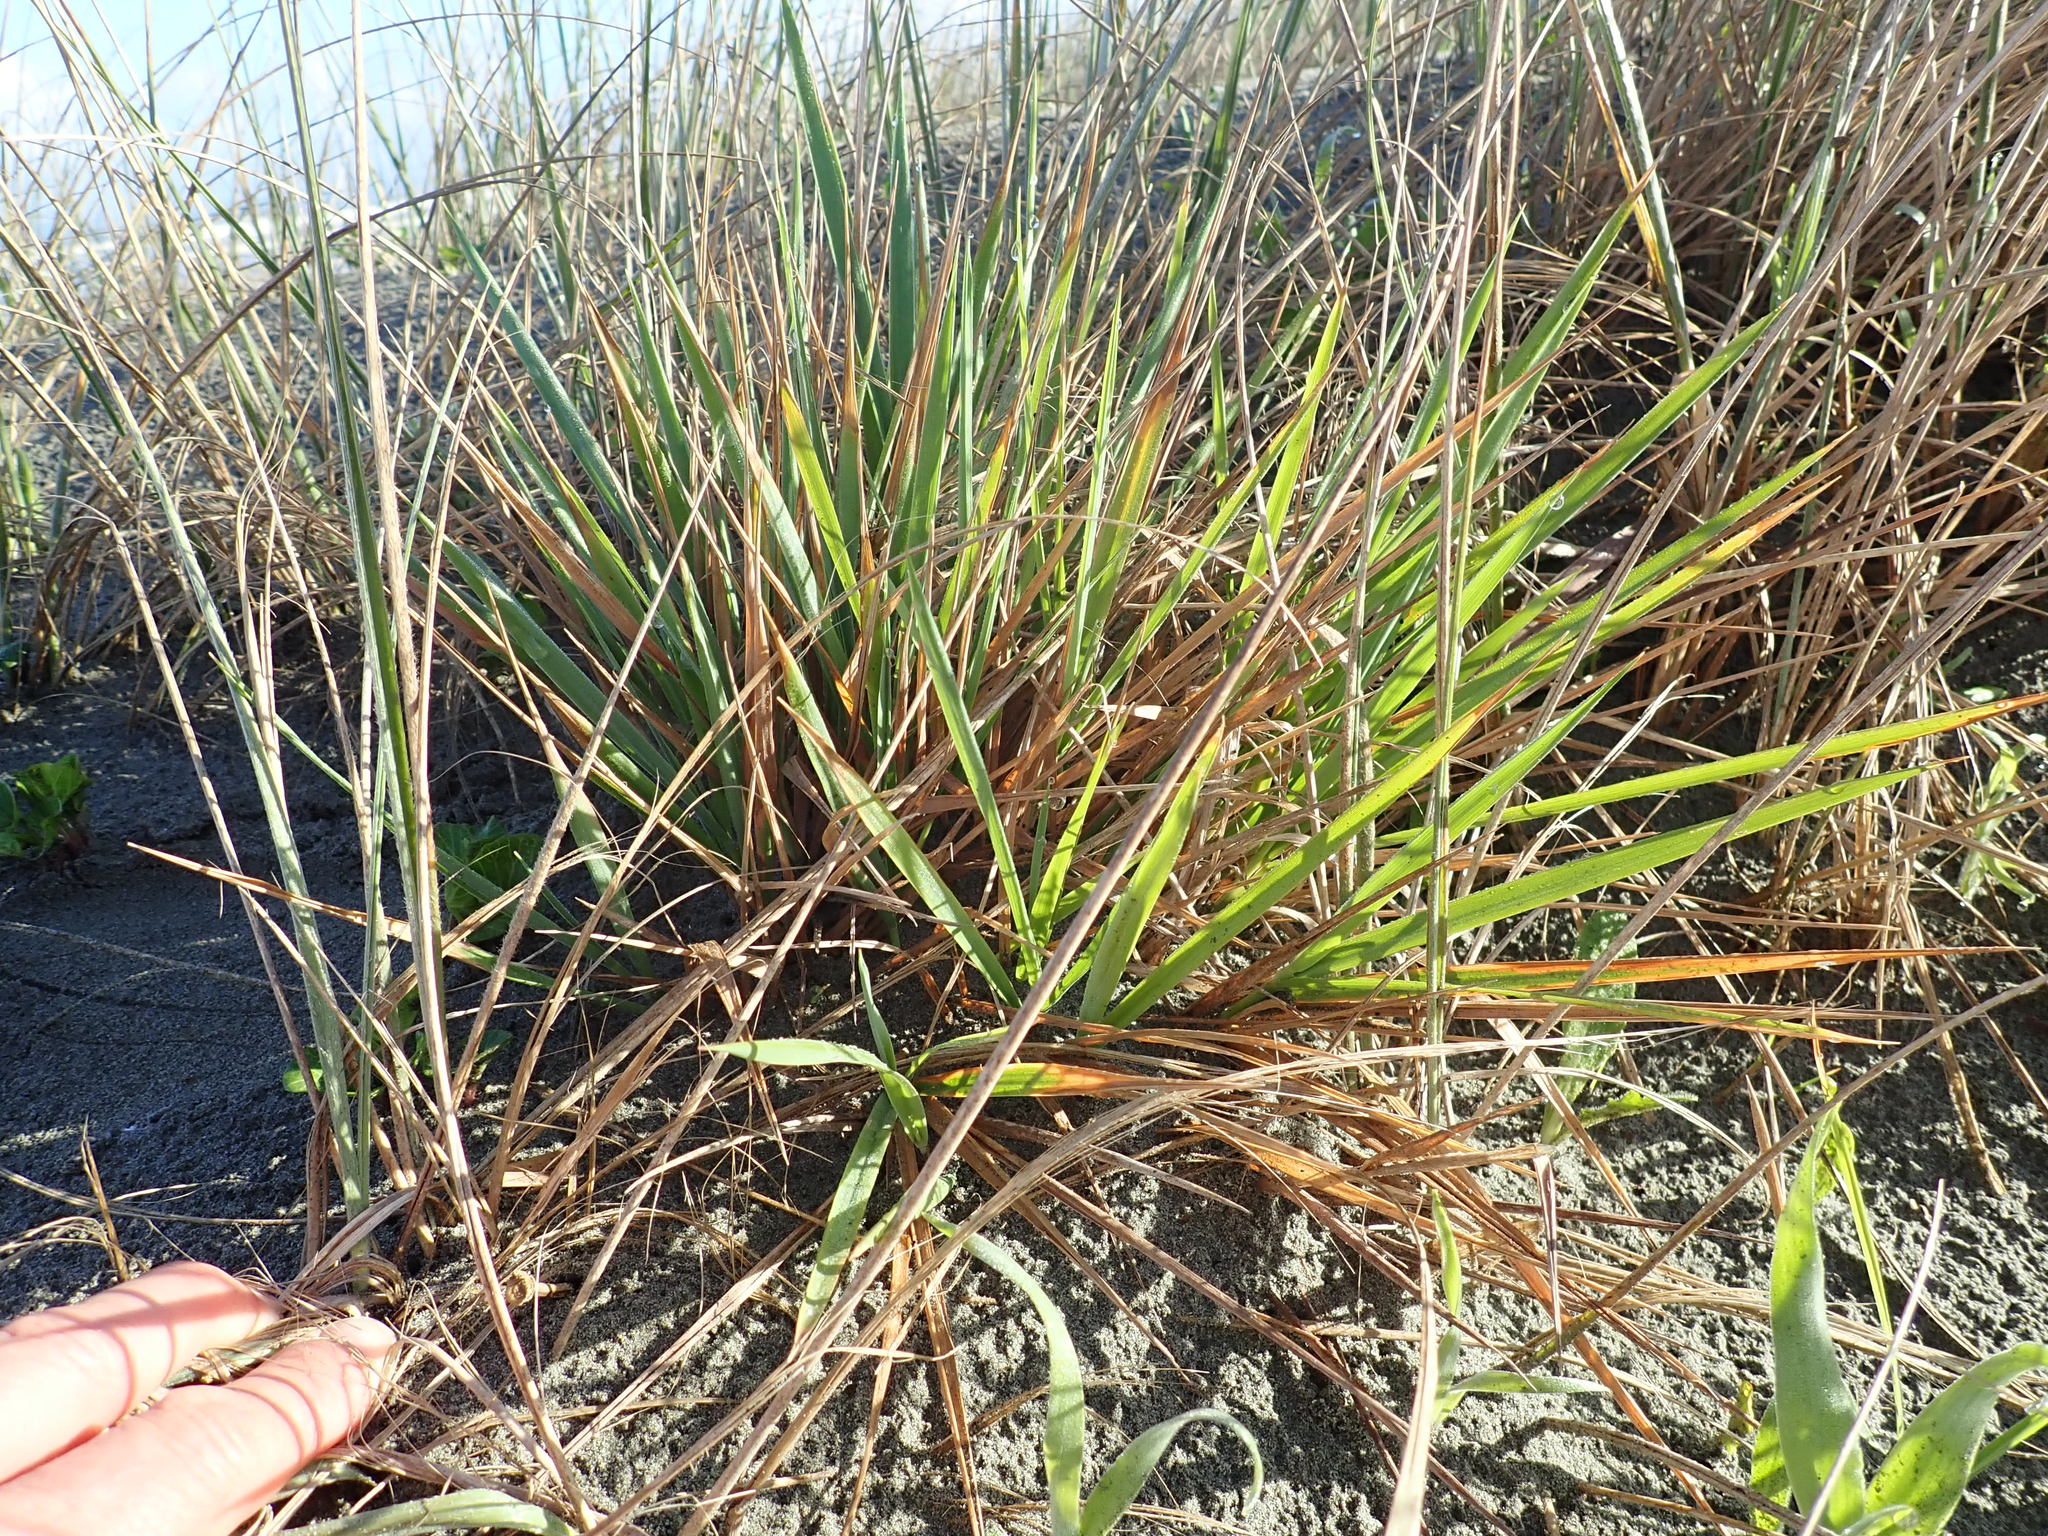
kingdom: Plantae
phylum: Tracheophyta
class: Liliopsida
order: Poales
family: Poaceae
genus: Lachnagrostis
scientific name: Lachnagrostis billardierei
